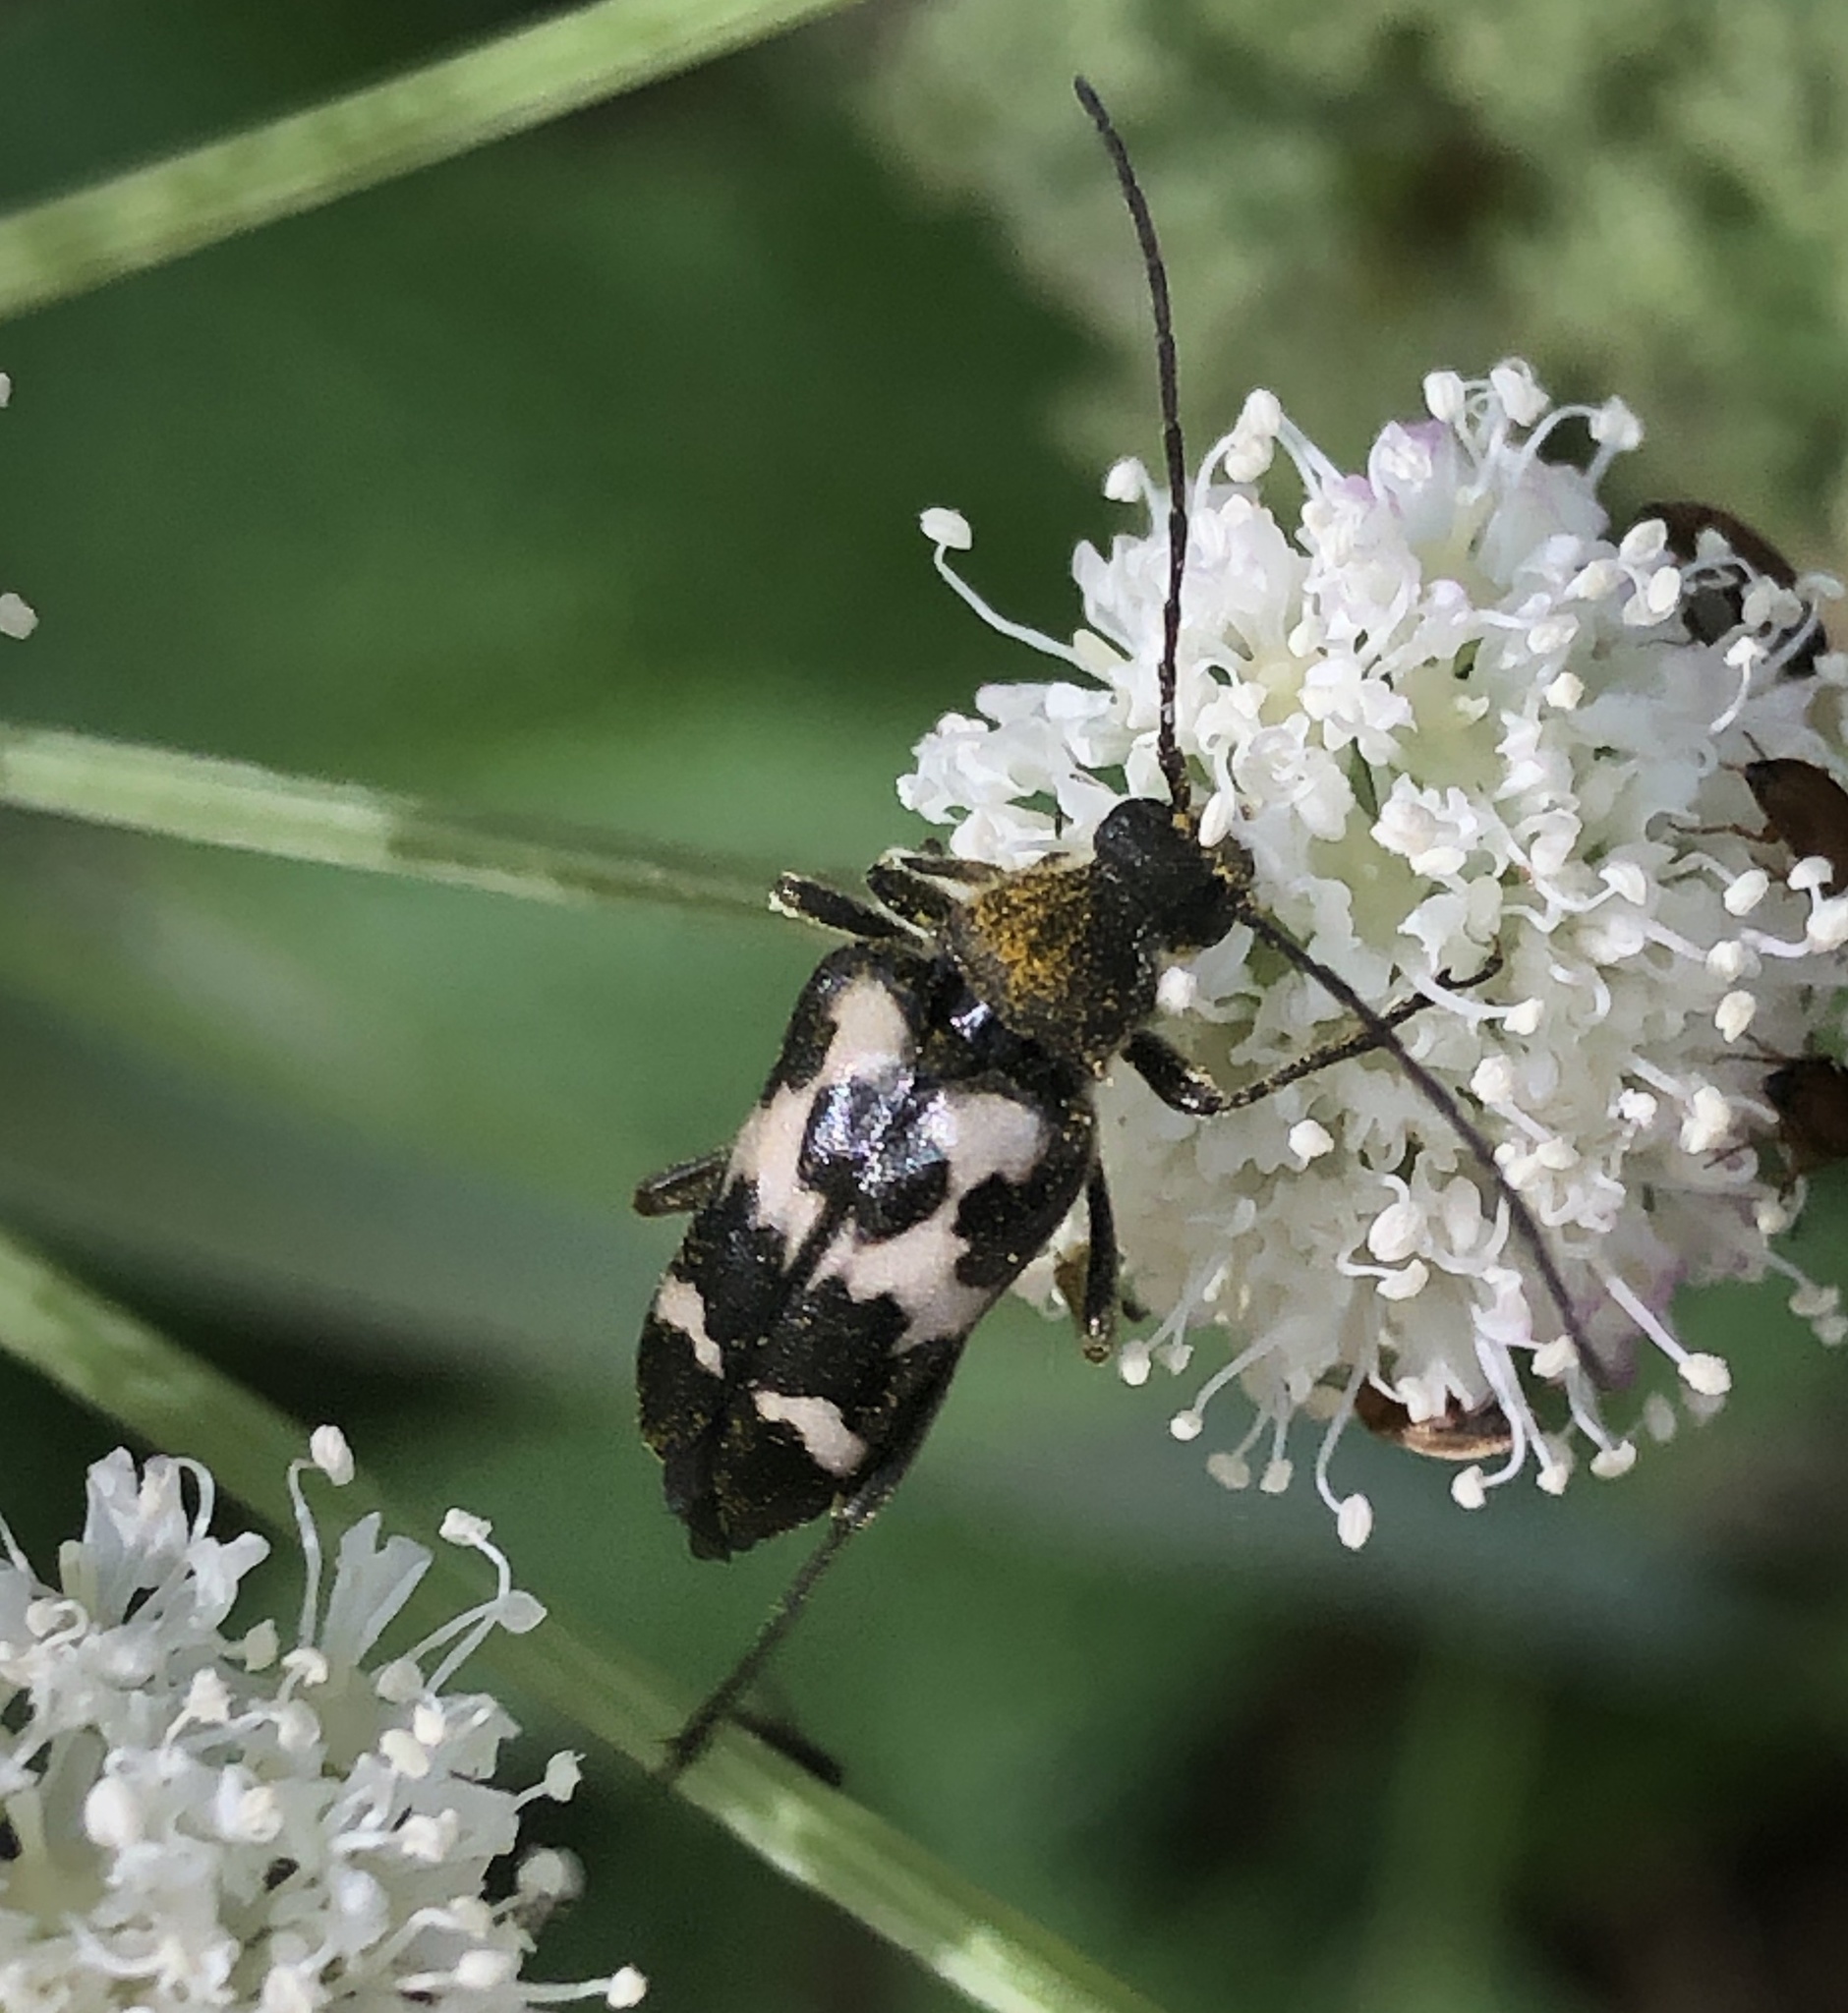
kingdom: Animalia
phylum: Arthropoda
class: Insecta
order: Coleoptera
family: Cerambycidae
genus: Judolia
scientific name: Judolia montivagans
